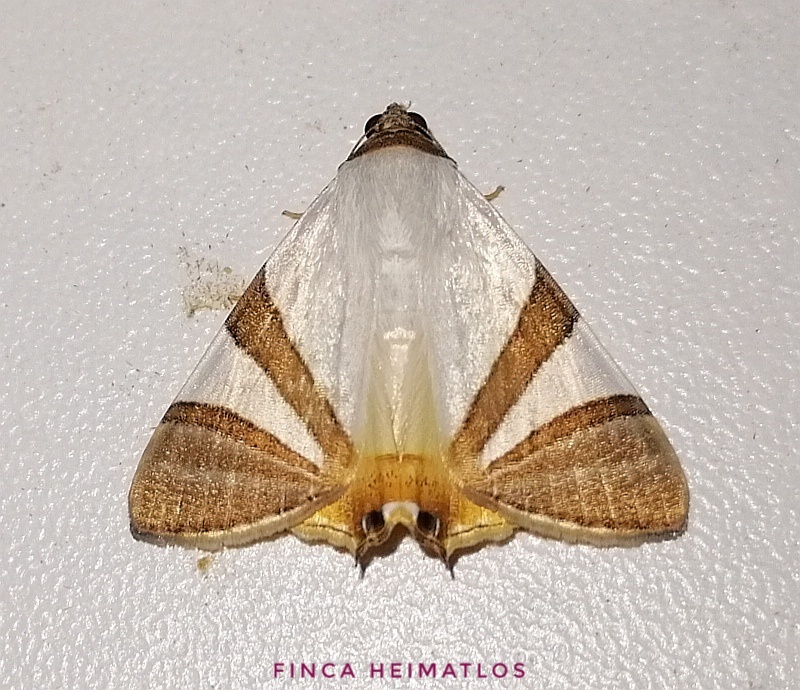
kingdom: Animalia
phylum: Arthropoda
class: Insecta
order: Lepidoptera
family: Erebidae
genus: Eulepidotis
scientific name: Eulepidotis electa
